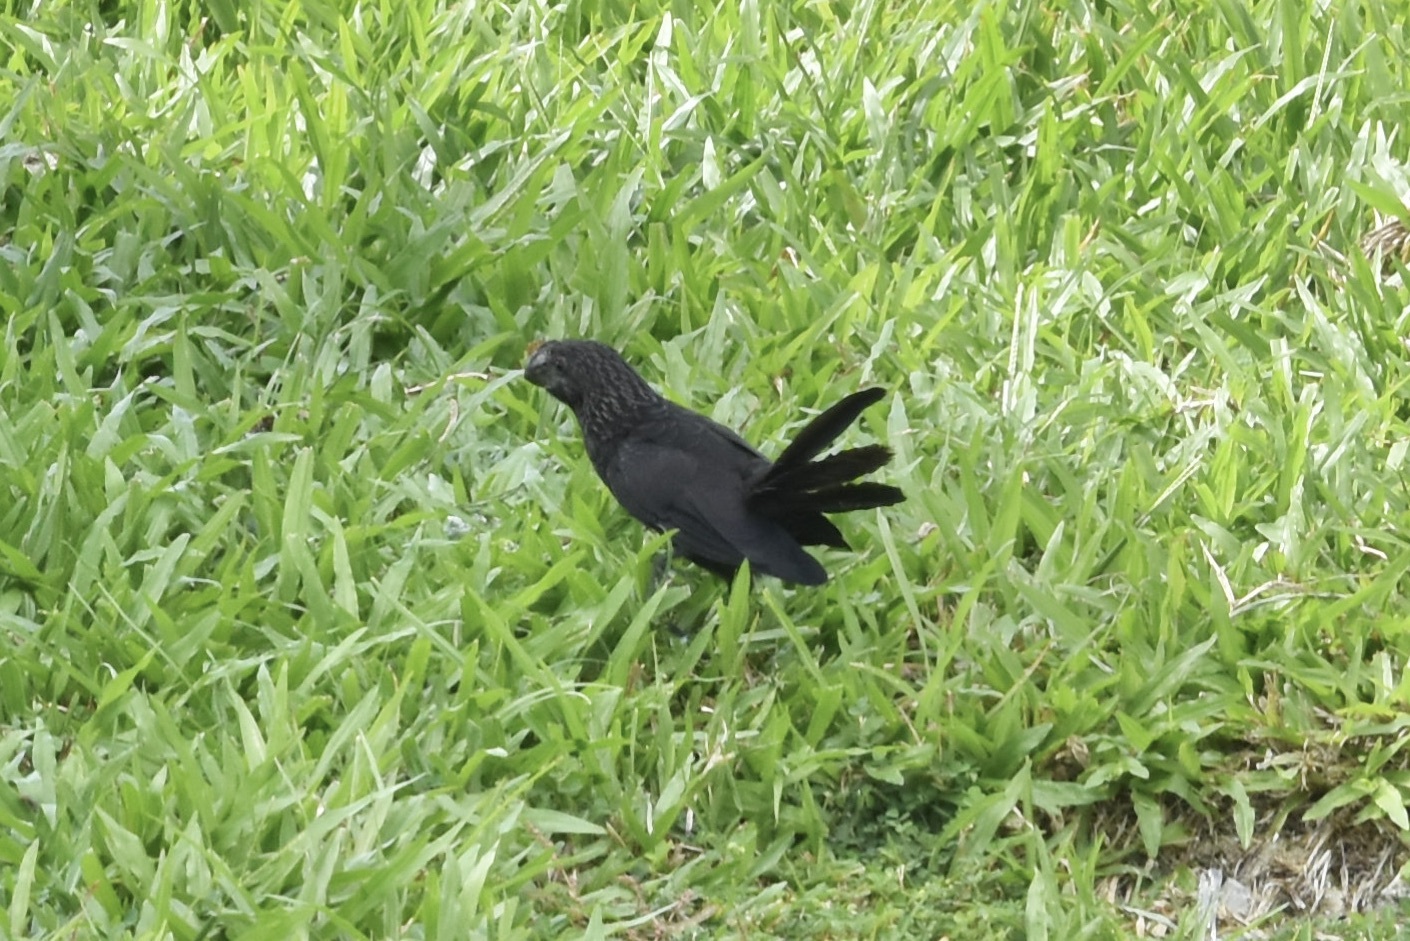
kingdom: Animalia
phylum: Chordata
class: Aves
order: Cuculiformes
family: Cuculidae
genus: Crotophaga
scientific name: Crotophaga ani
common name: Smooth-billed ani
